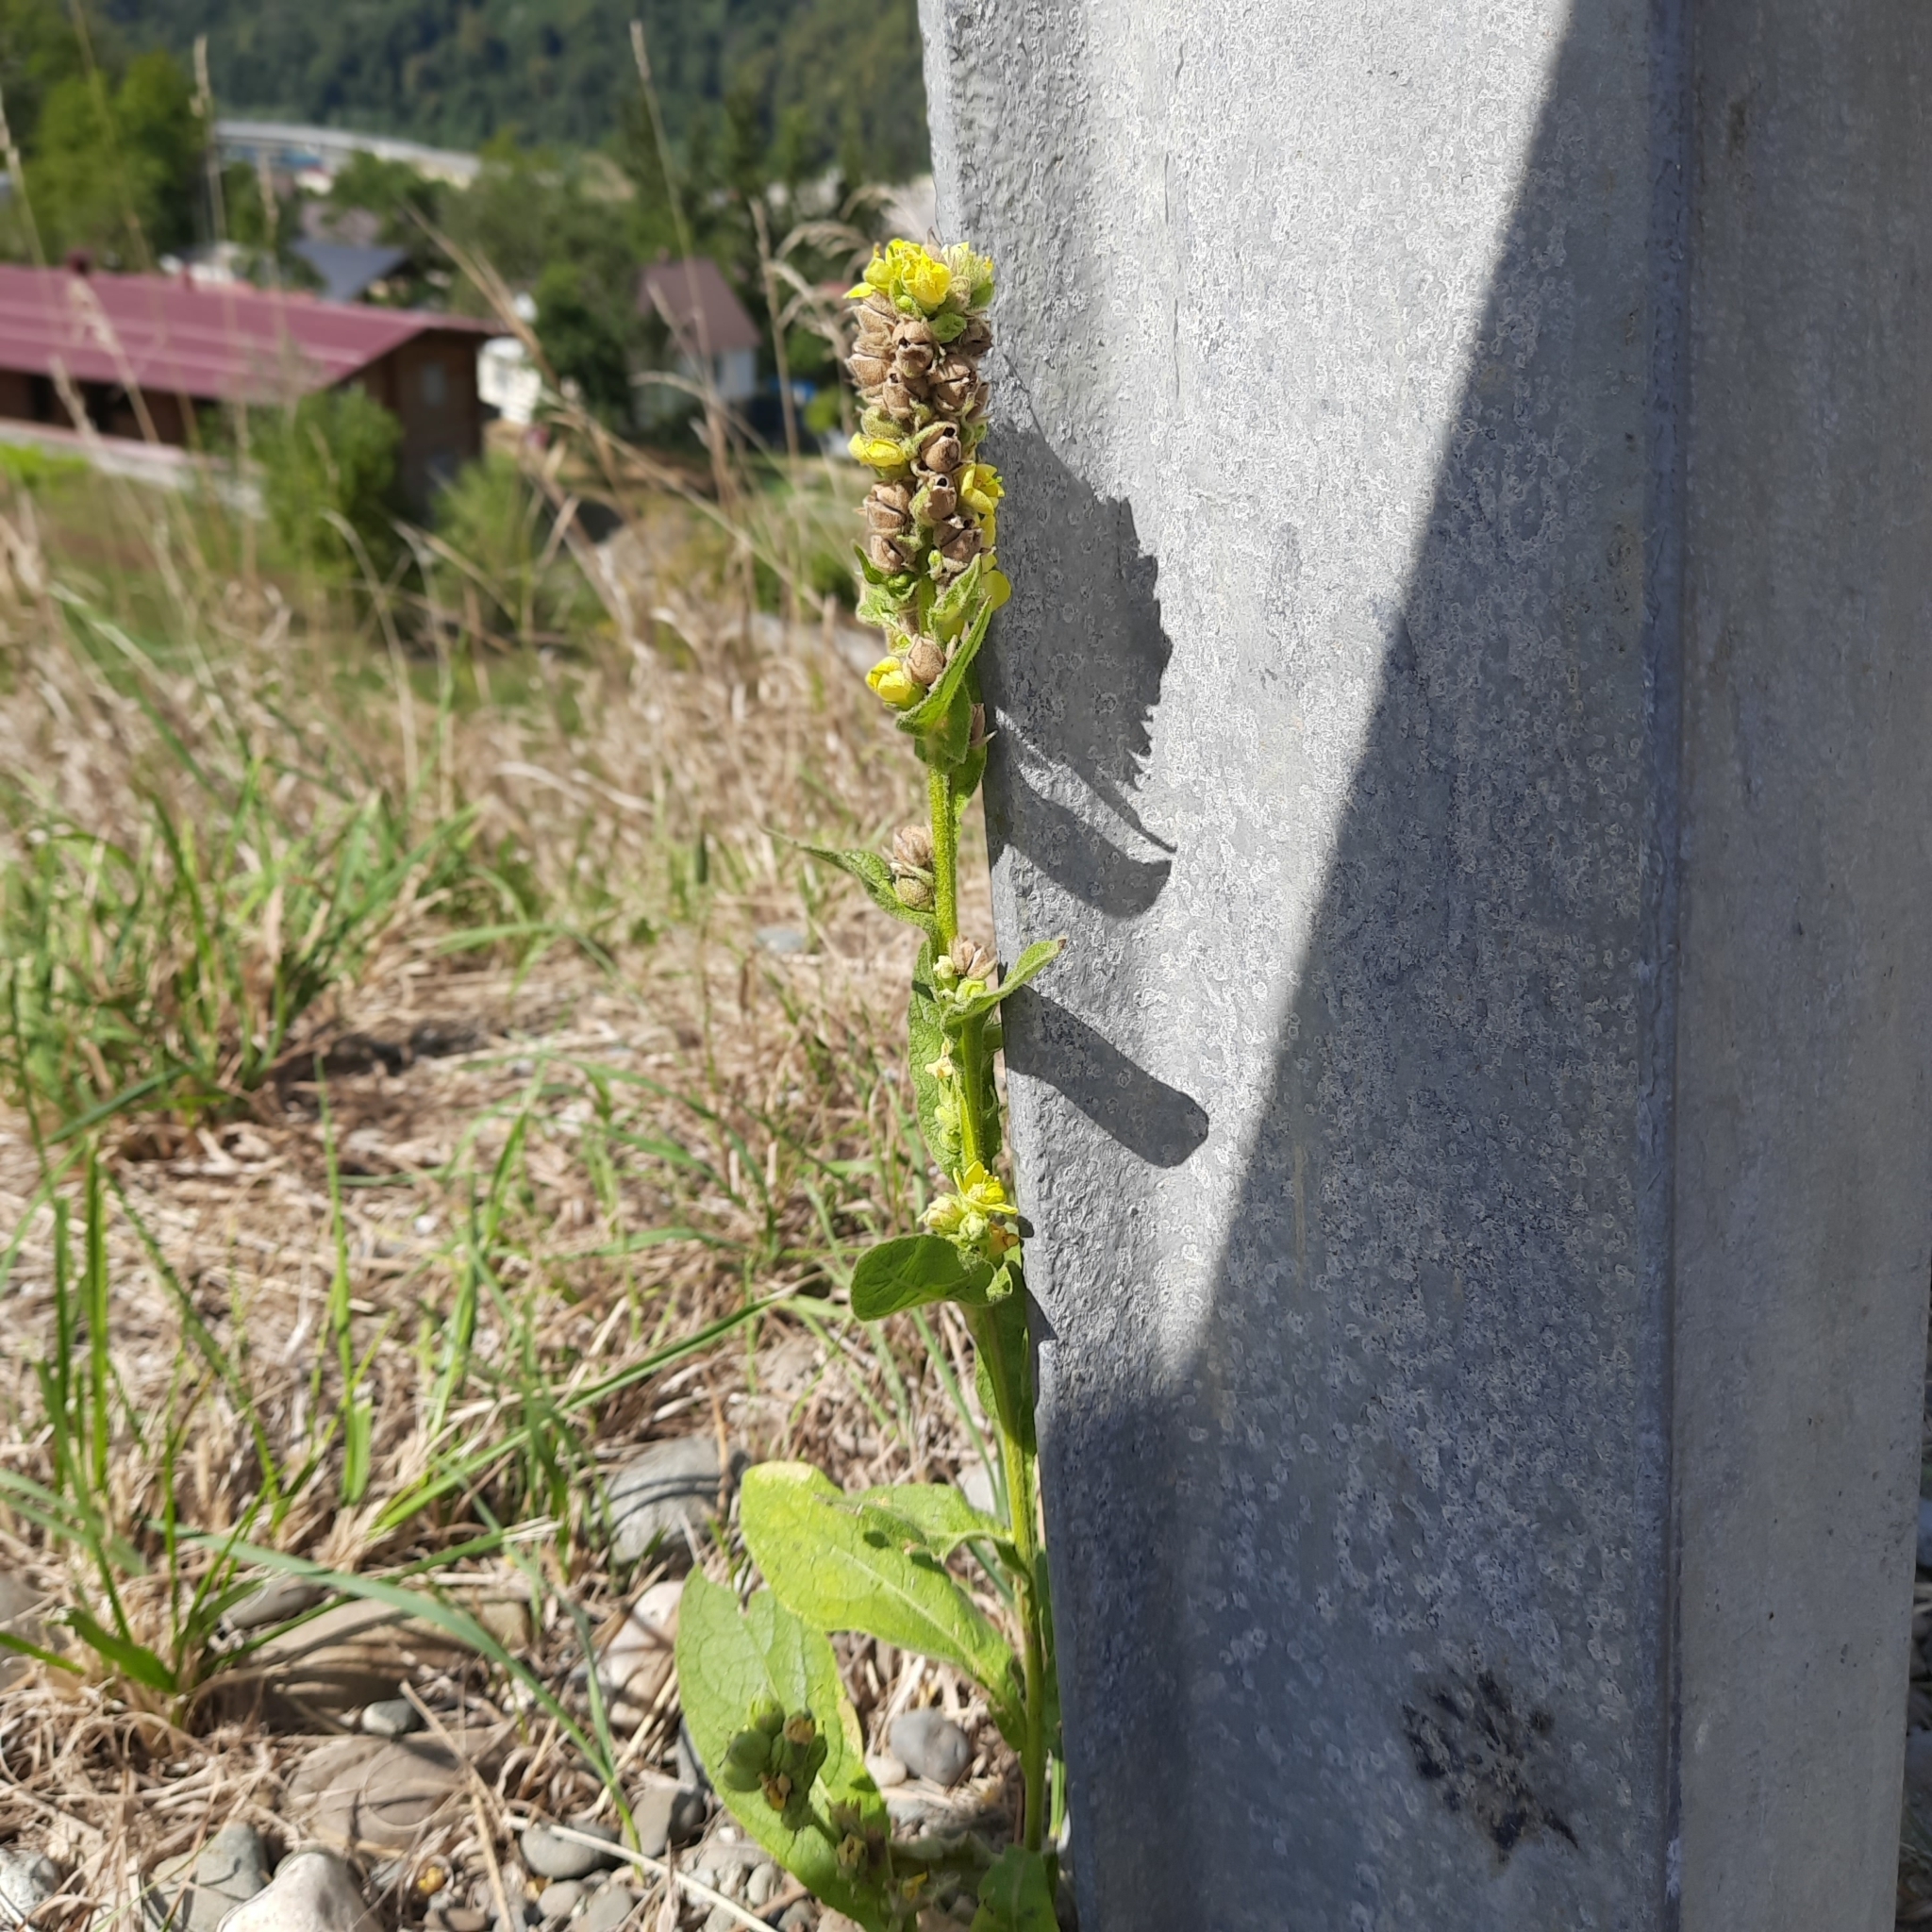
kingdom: Plantae
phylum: Tracheophyta
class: Magnoliopsida
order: Lamiales
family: Scrophulariaceae
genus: Verbascum
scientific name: Verbascum thapsus
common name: Common mullein
